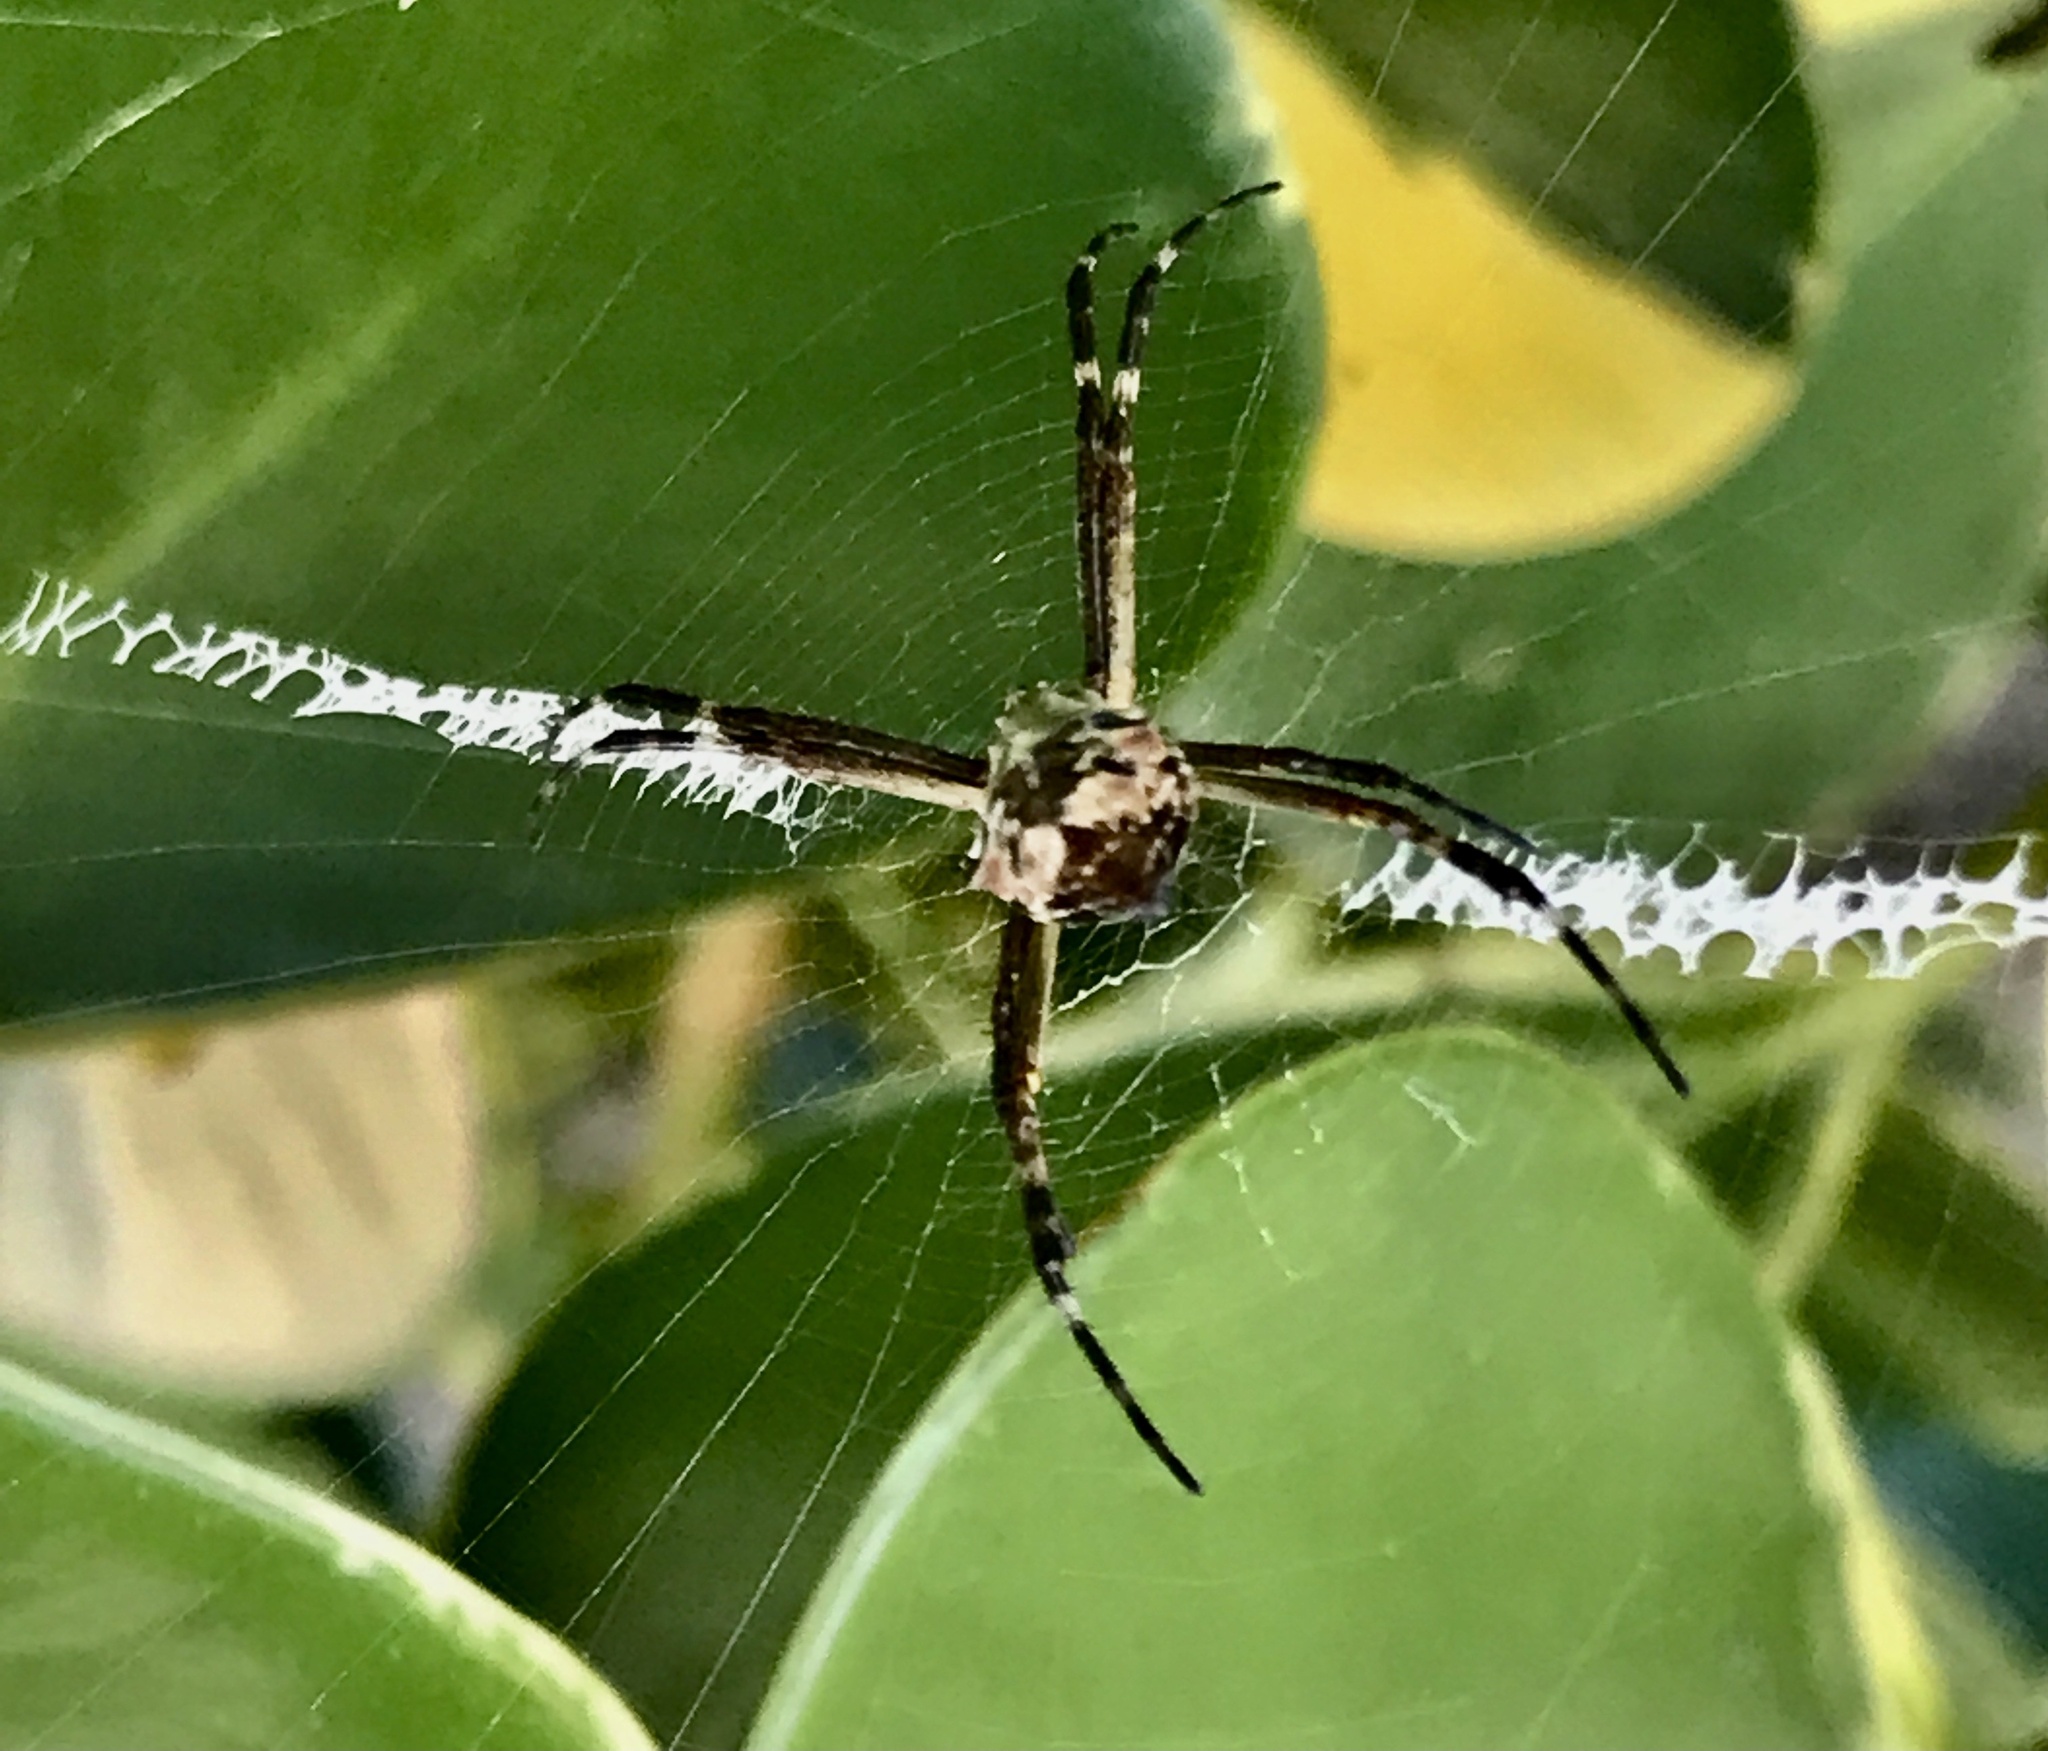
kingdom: Animalia
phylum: Arthropoda
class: Arachnida
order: Araneae
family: Araneidae
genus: Argiope
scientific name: Argiope argentata
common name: Orb weavers
